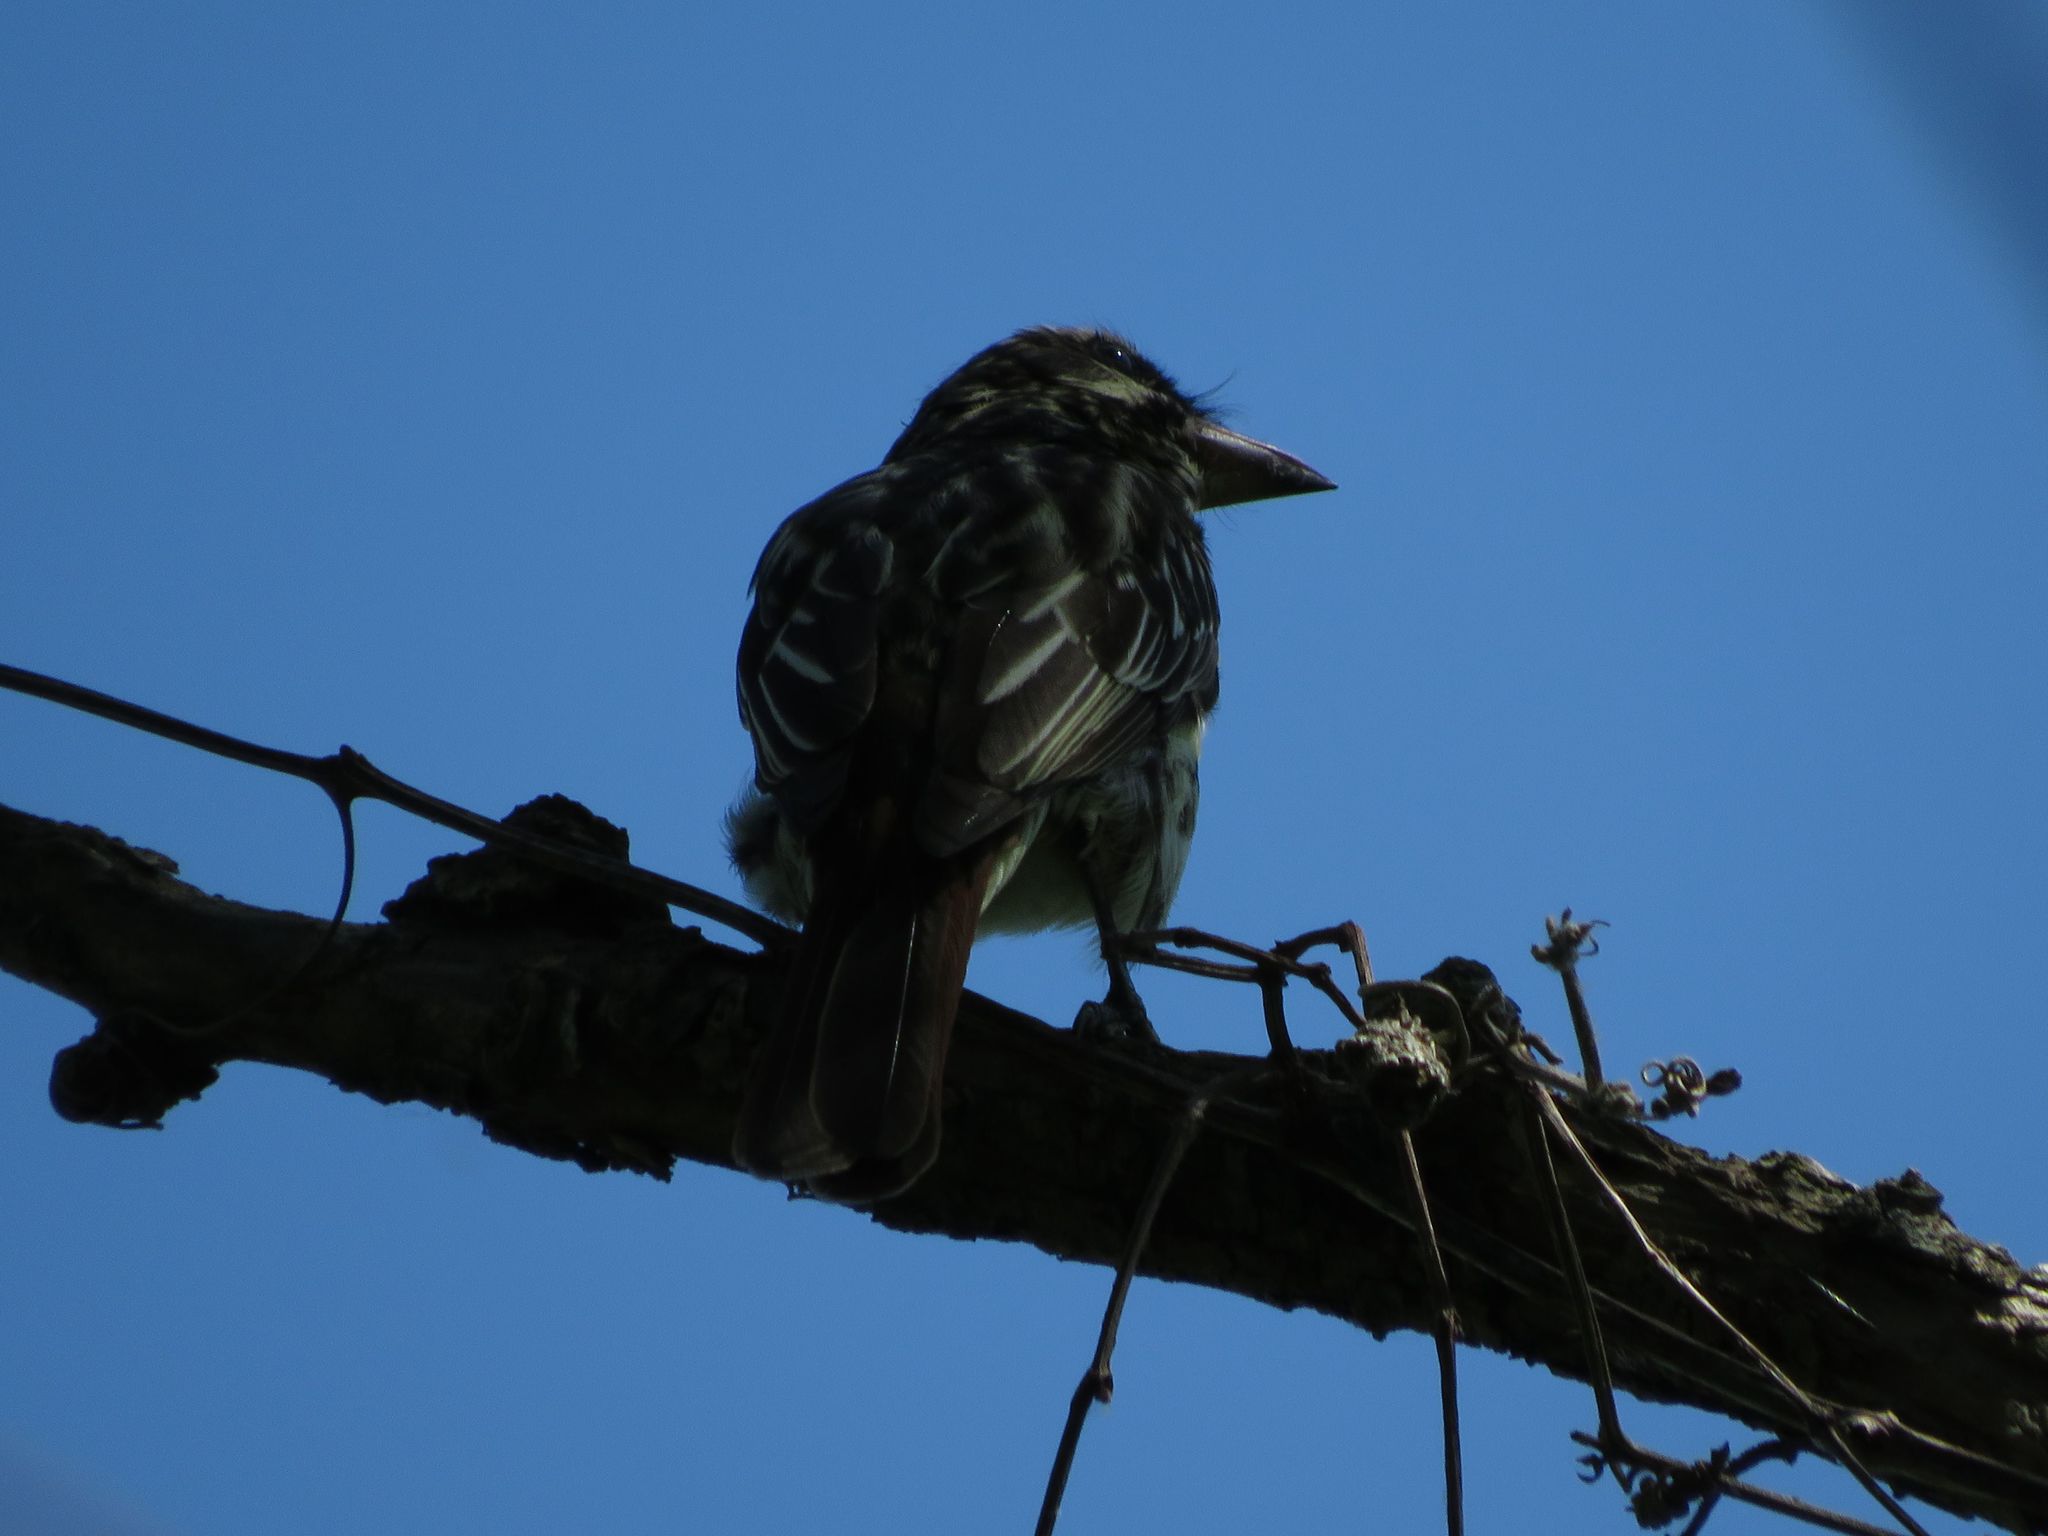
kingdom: Animalia
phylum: Chordata
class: Aves
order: Passeriformes
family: Tyrannidae
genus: Myiodynastes
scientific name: Myiodynastes maculatus
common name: Streaked flycatcher
